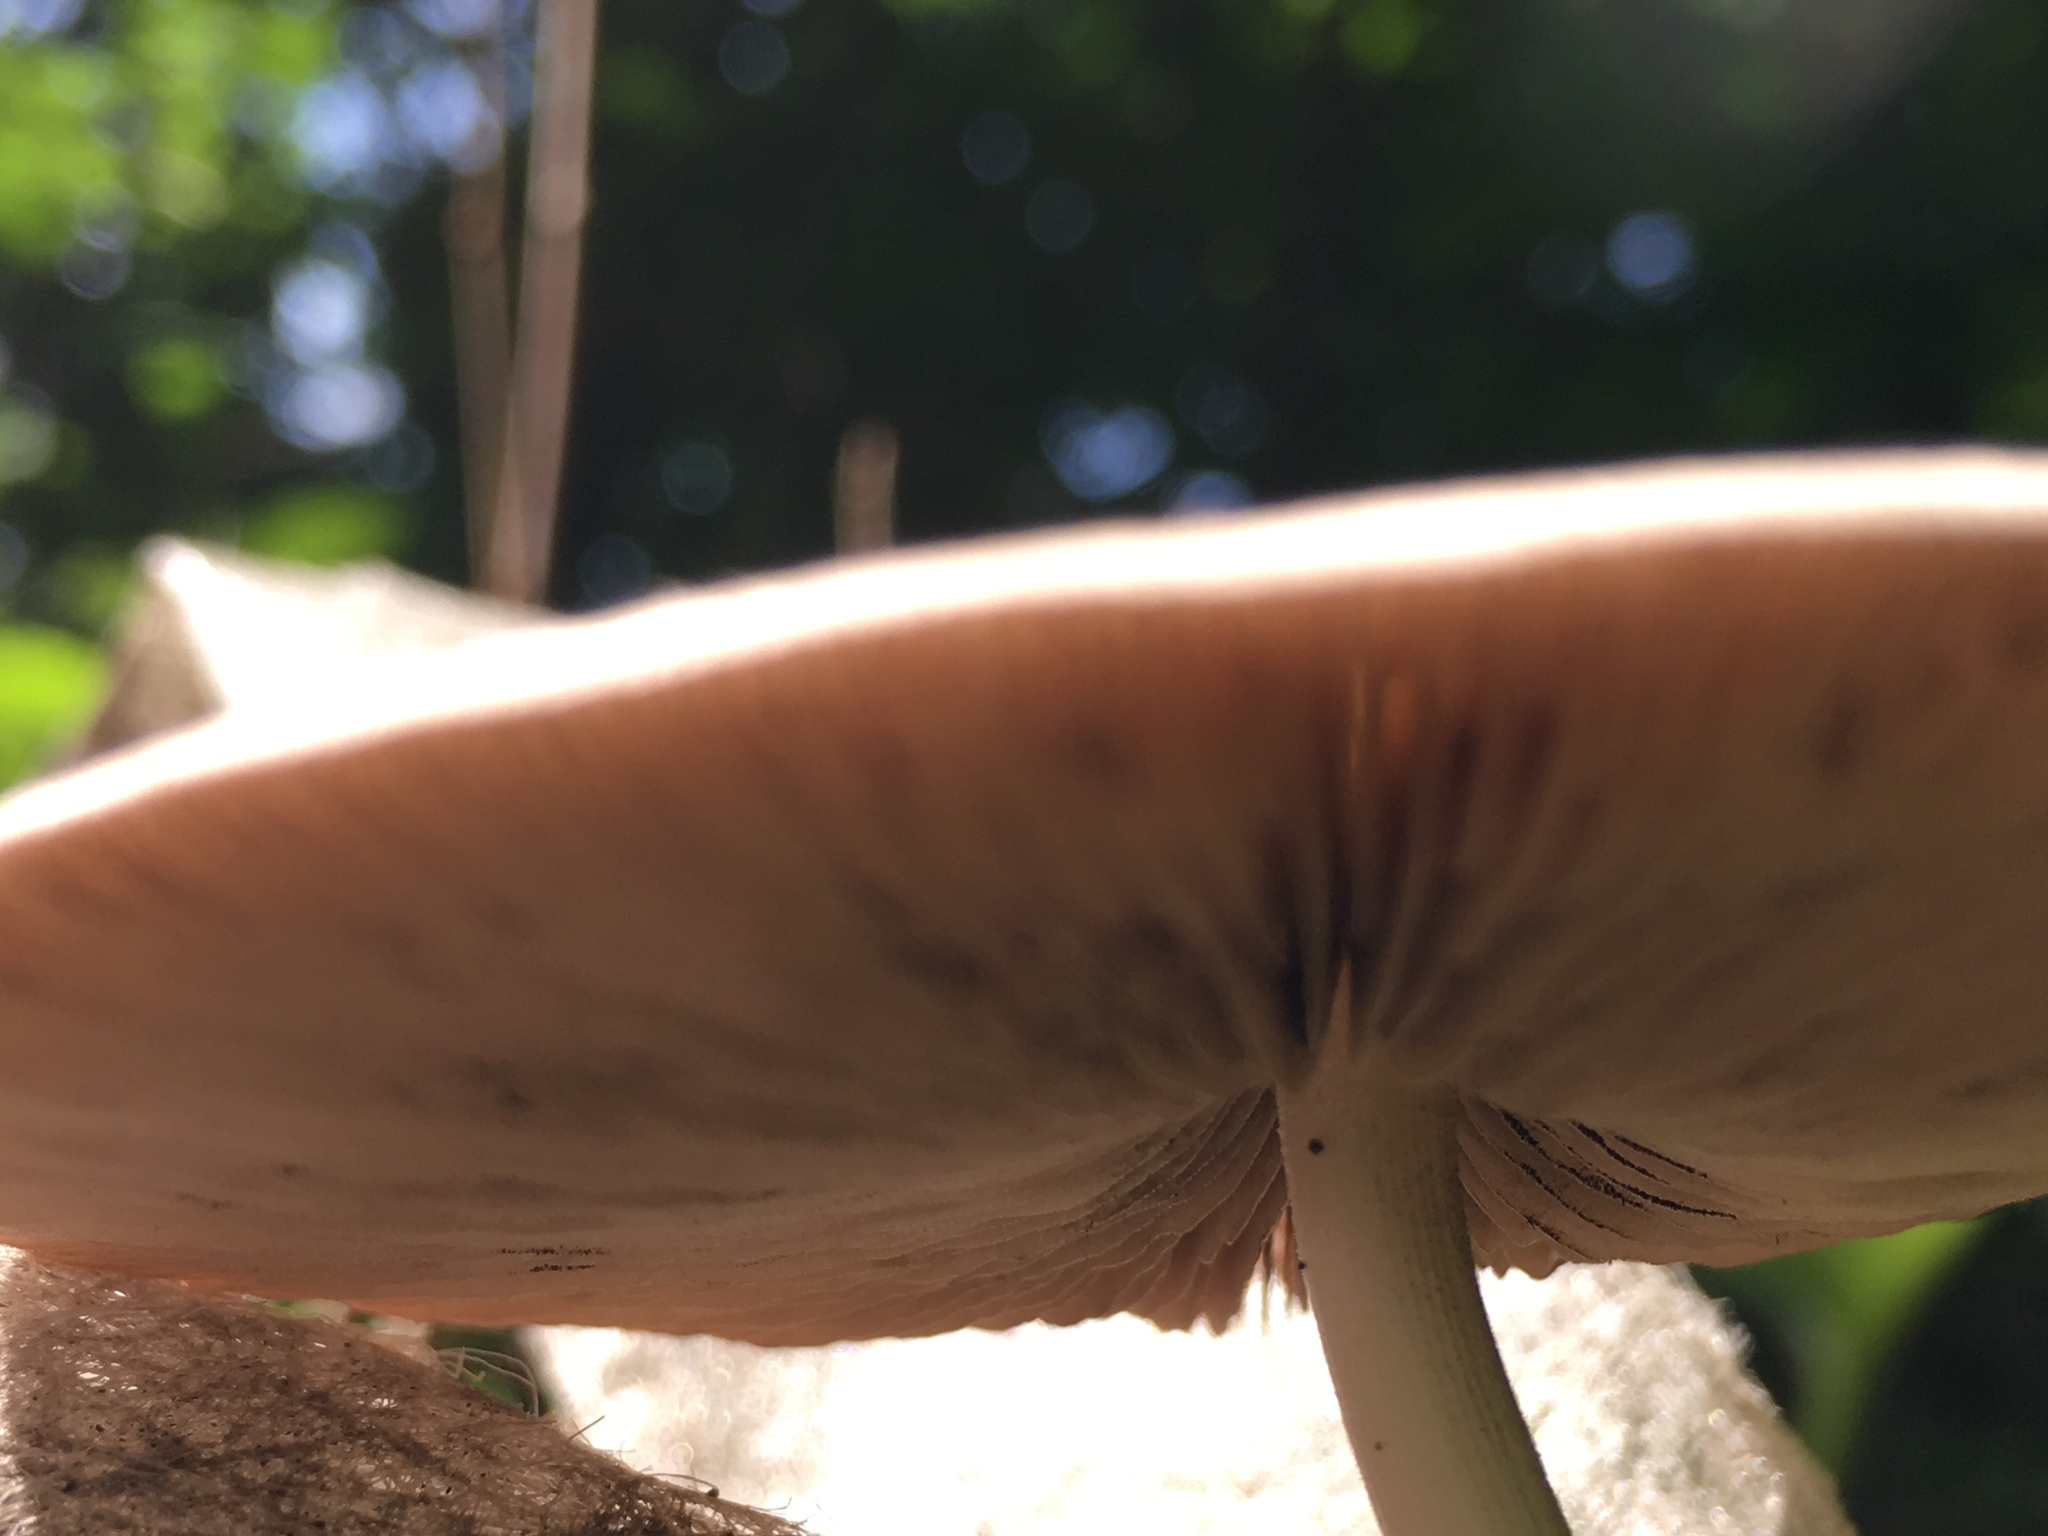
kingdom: Fungi
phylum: Basidiomycota
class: Agaricomycetes
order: Agaricales
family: Pluteaceae
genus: Pluteus
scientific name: Pluteus cervinus
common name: Deer shield
